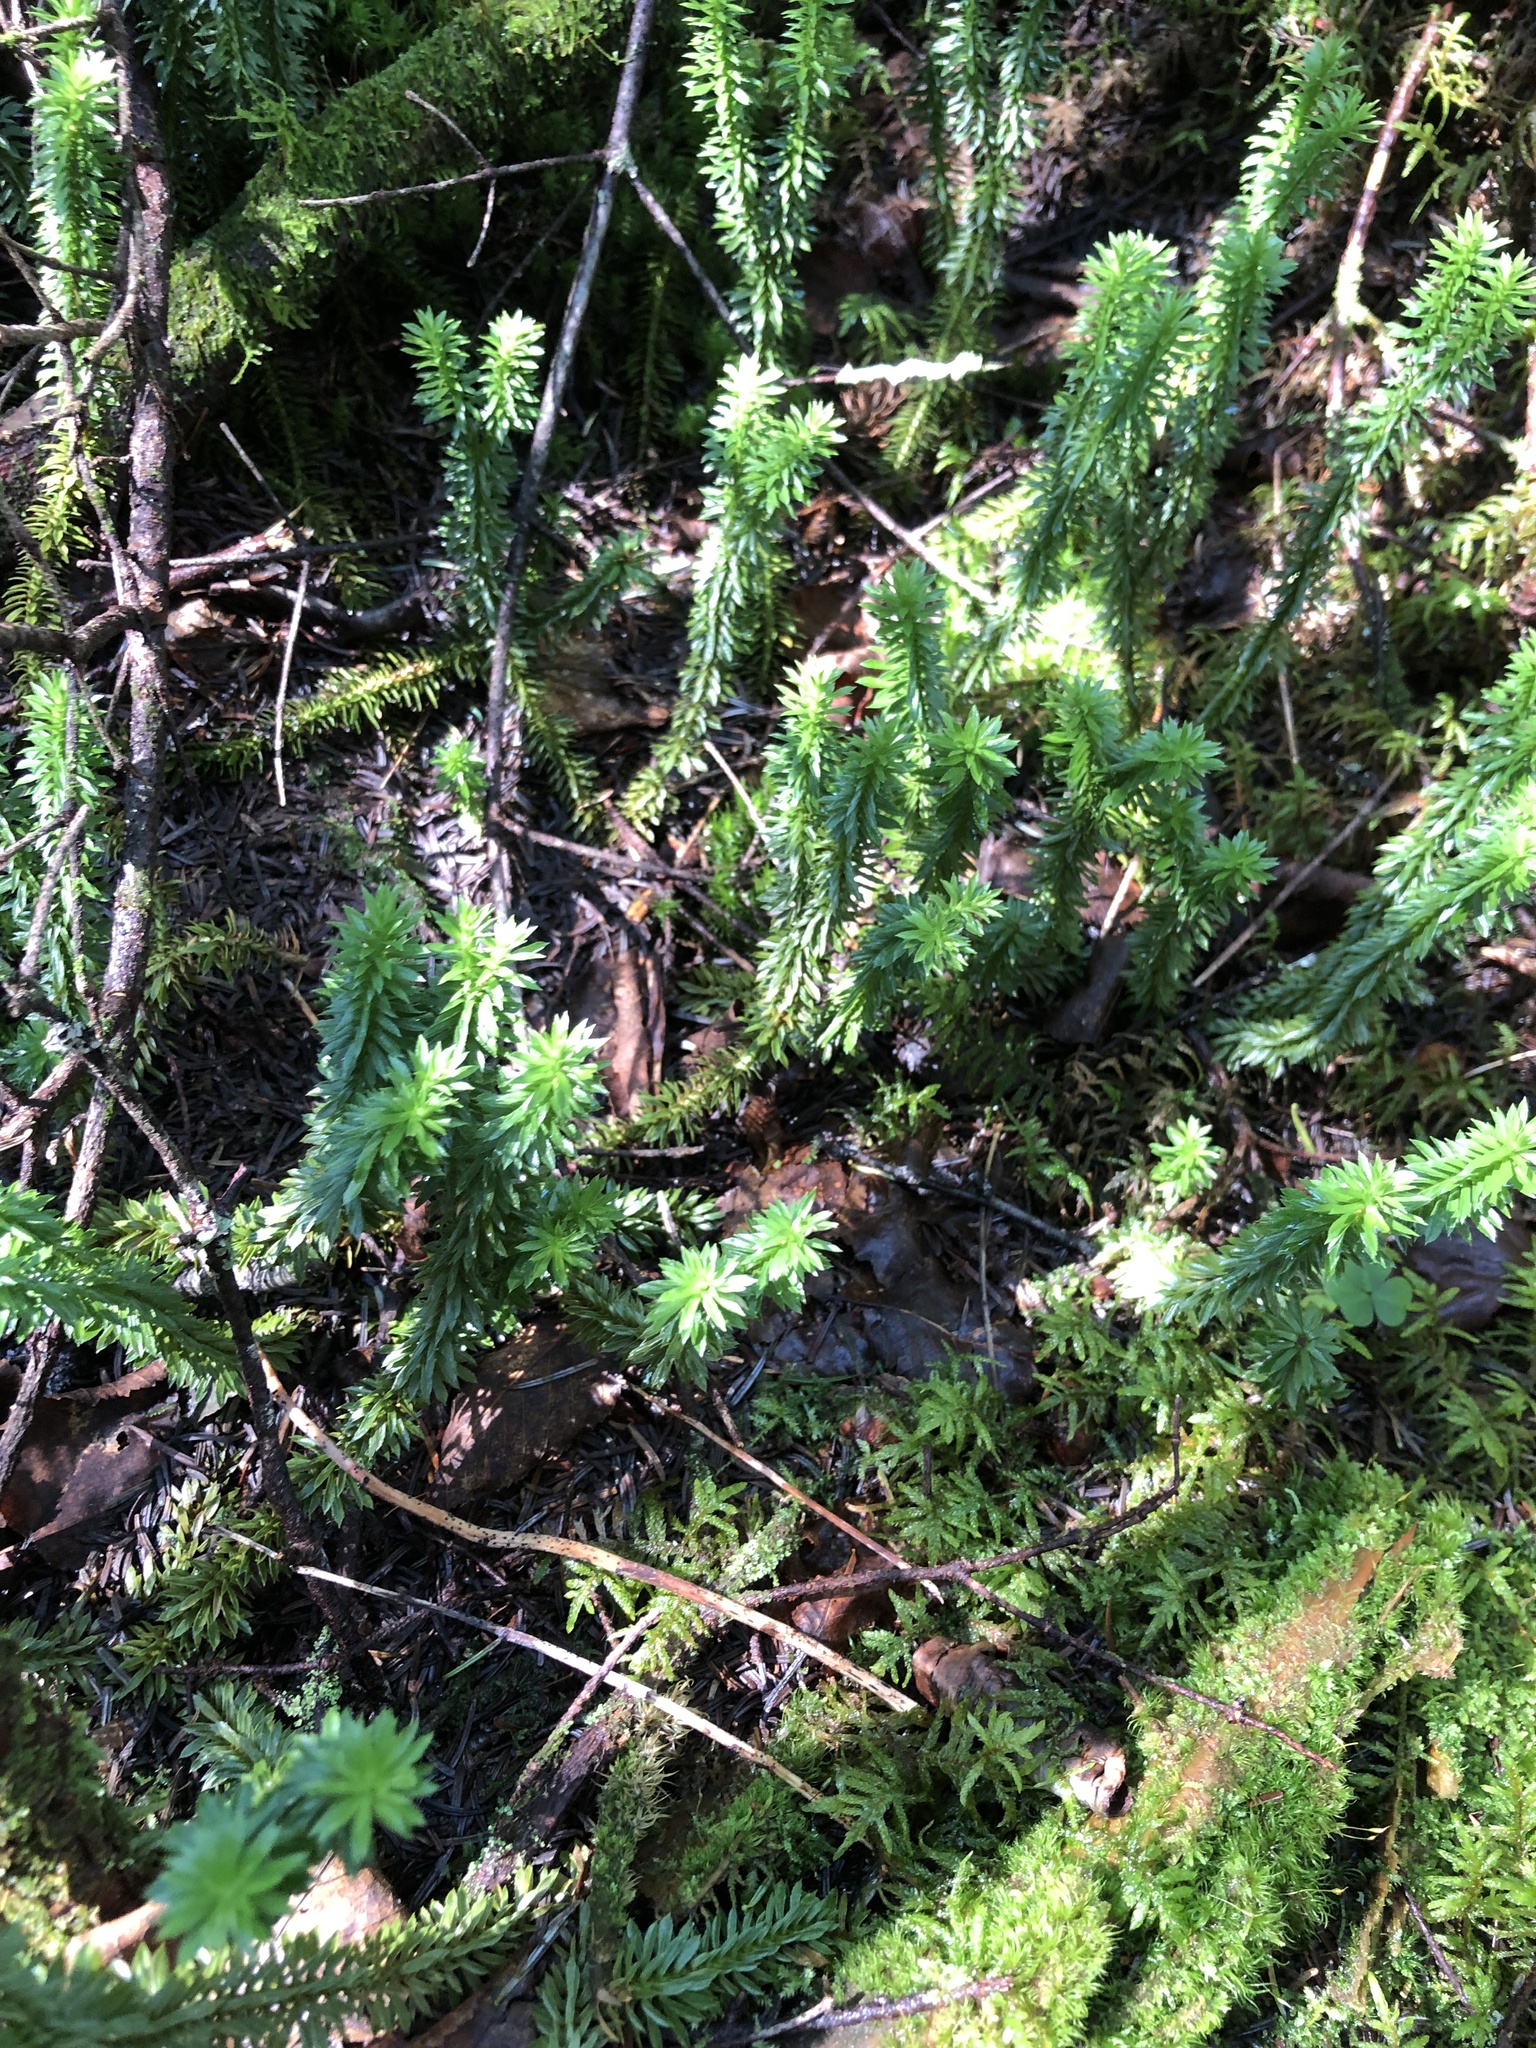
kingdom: Plantae
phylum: Tracheophyta
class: Lycopodiopsida
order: Lycopodiales
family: Lycopodiaceae
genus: Huperzia
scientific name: Huperzia lucidula
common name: Shining clubmoss
